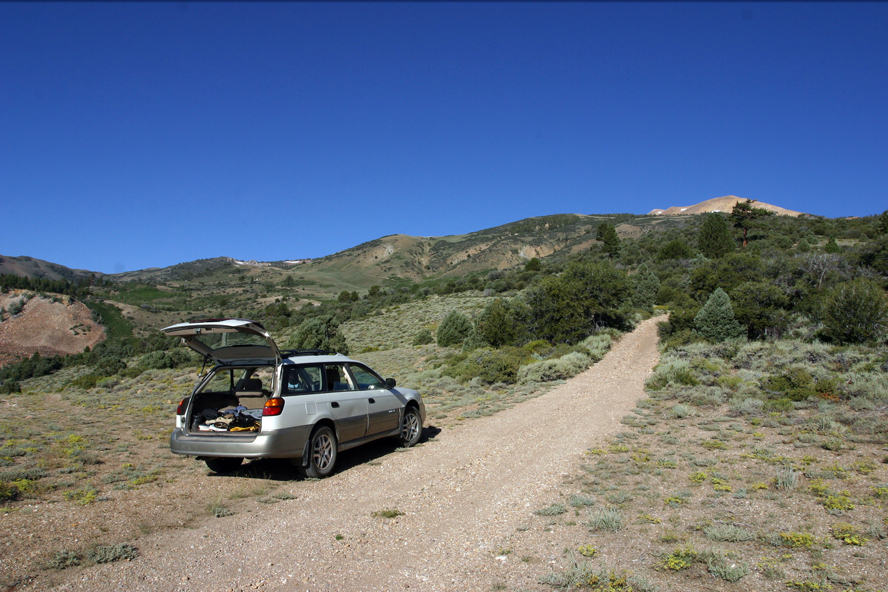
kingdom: Plantae
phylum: Tracheophyta
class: Magnoliopsida
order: Caryophyllales
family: Polygonaceae
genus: Eriogonum
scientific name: Eriogonum microtheca
